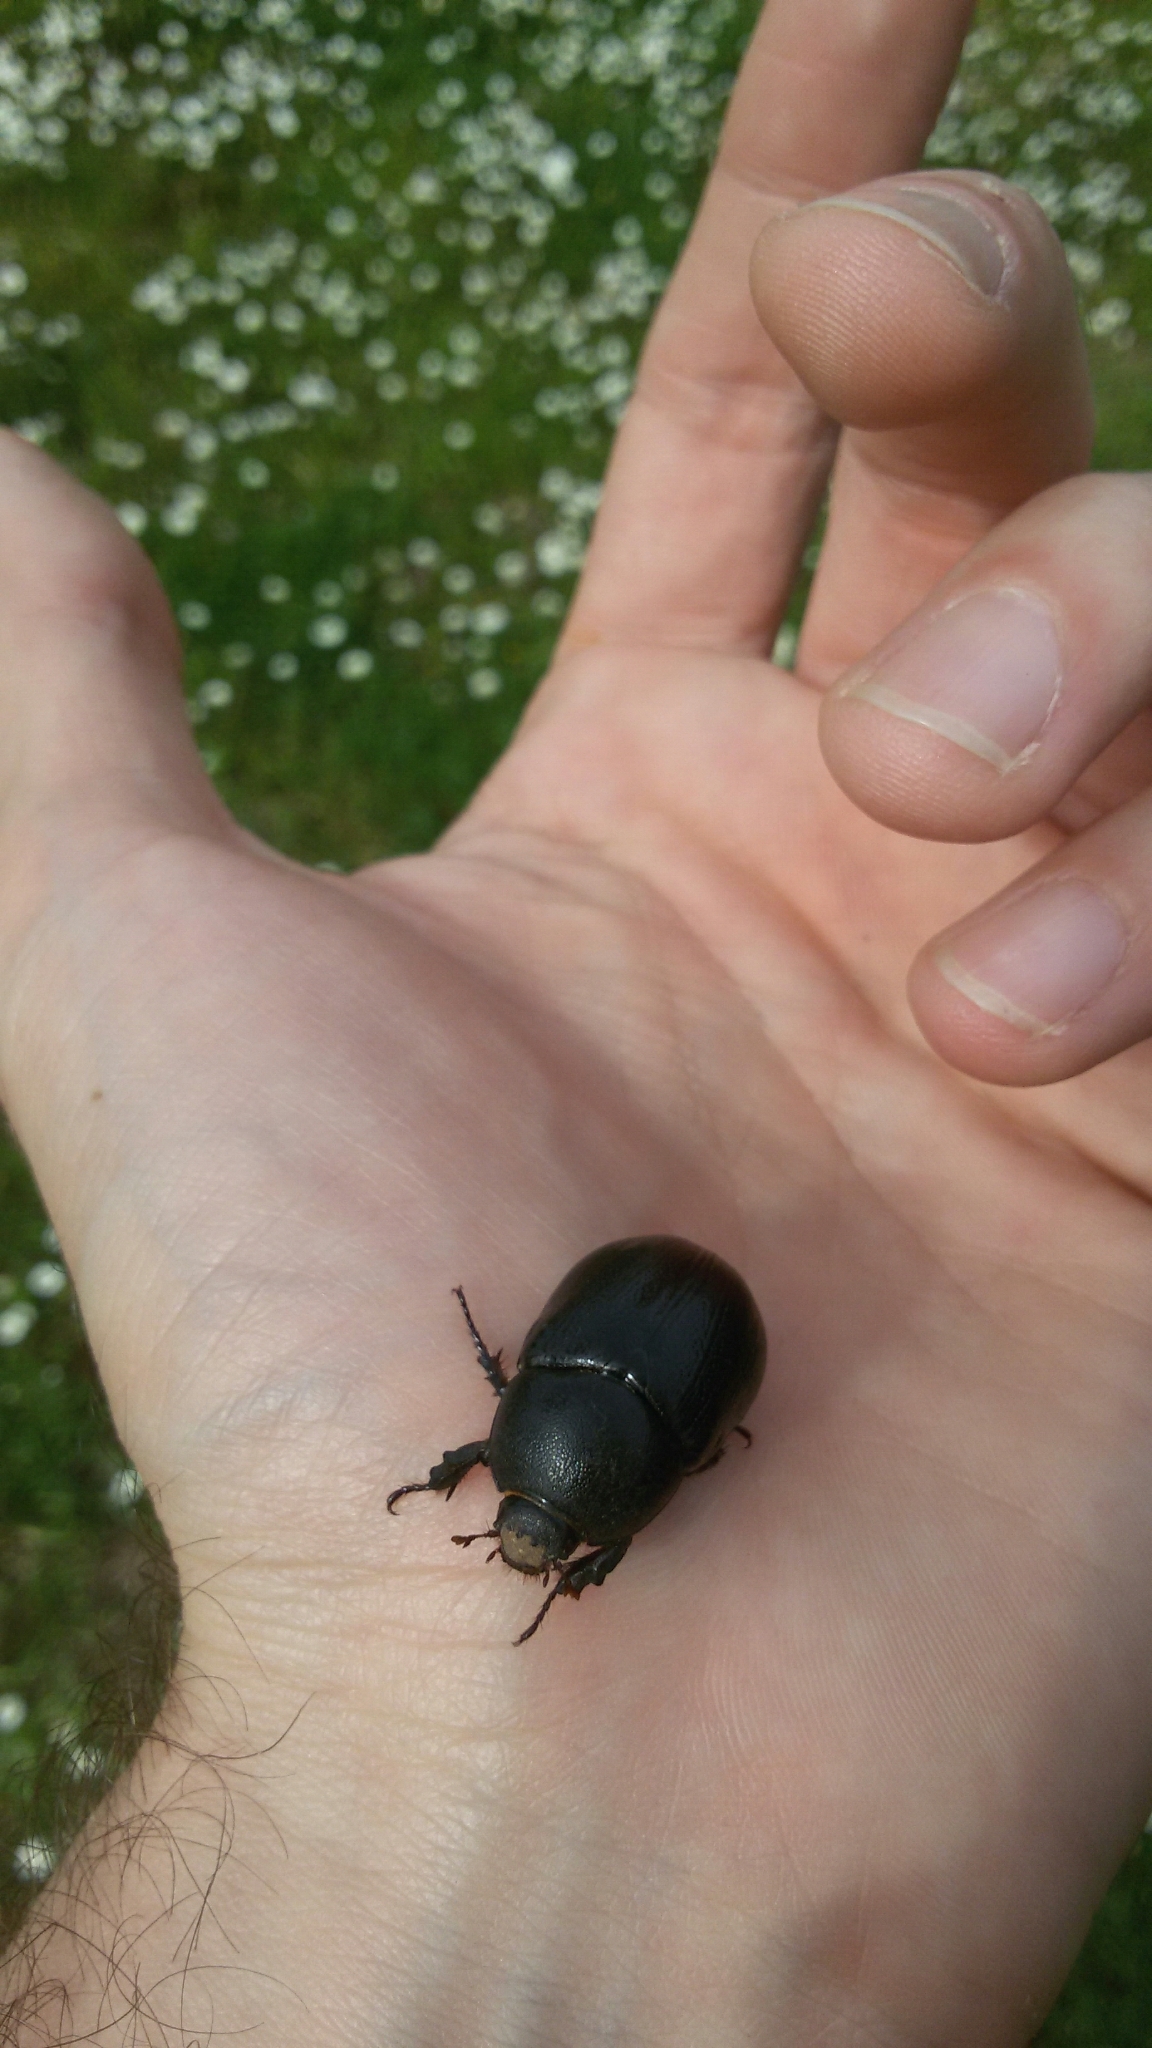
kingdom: Animalia
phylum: Arthropoda
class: Insecta
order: Coleoptera
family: Scarabaeidae
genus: Pentodon
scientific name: Pentodon bidens
